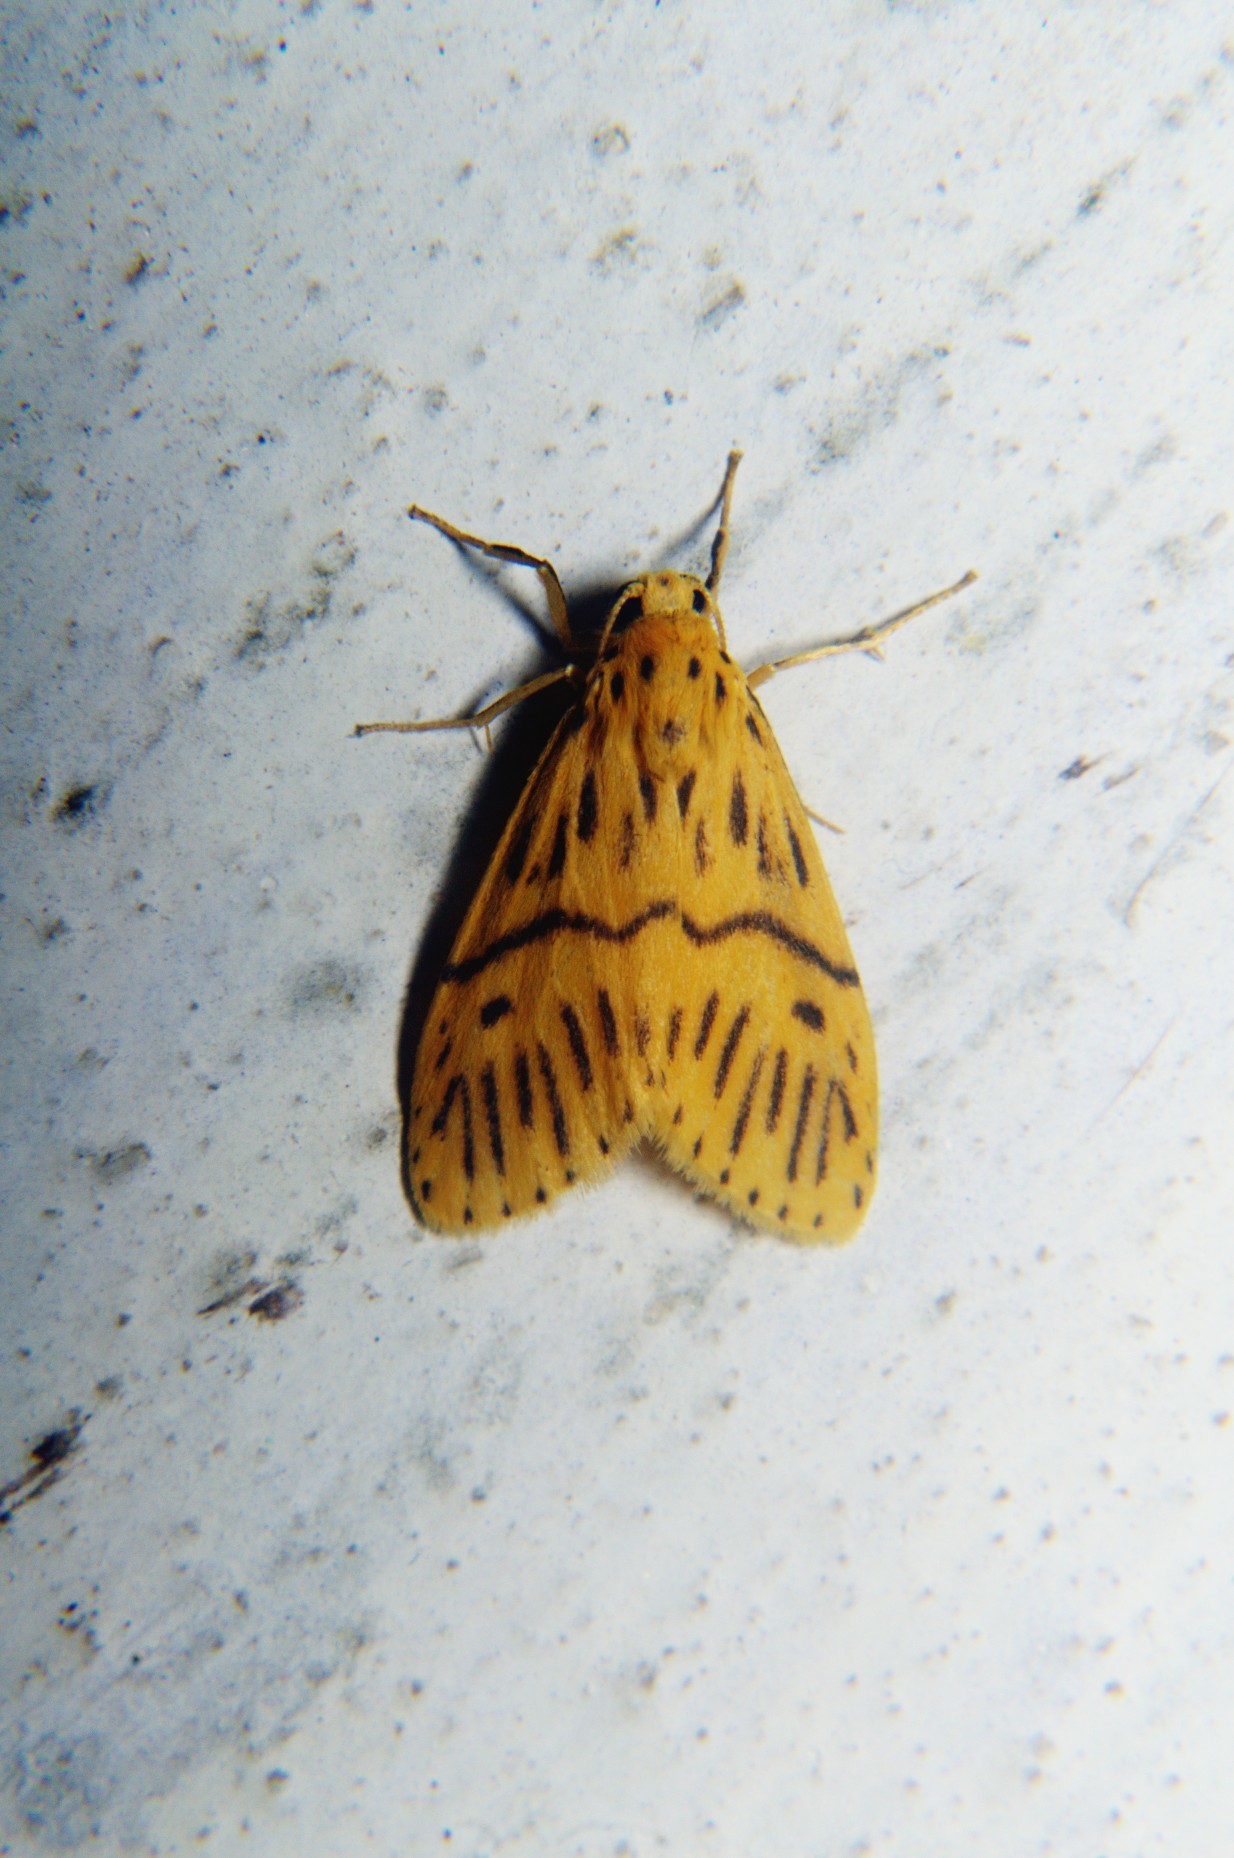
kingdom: Animalia
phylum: Arthropoda
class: Insecta
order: Lepidoptera
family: Erebidae
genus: Miltochrista
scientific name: Miltochrista strigipennis
